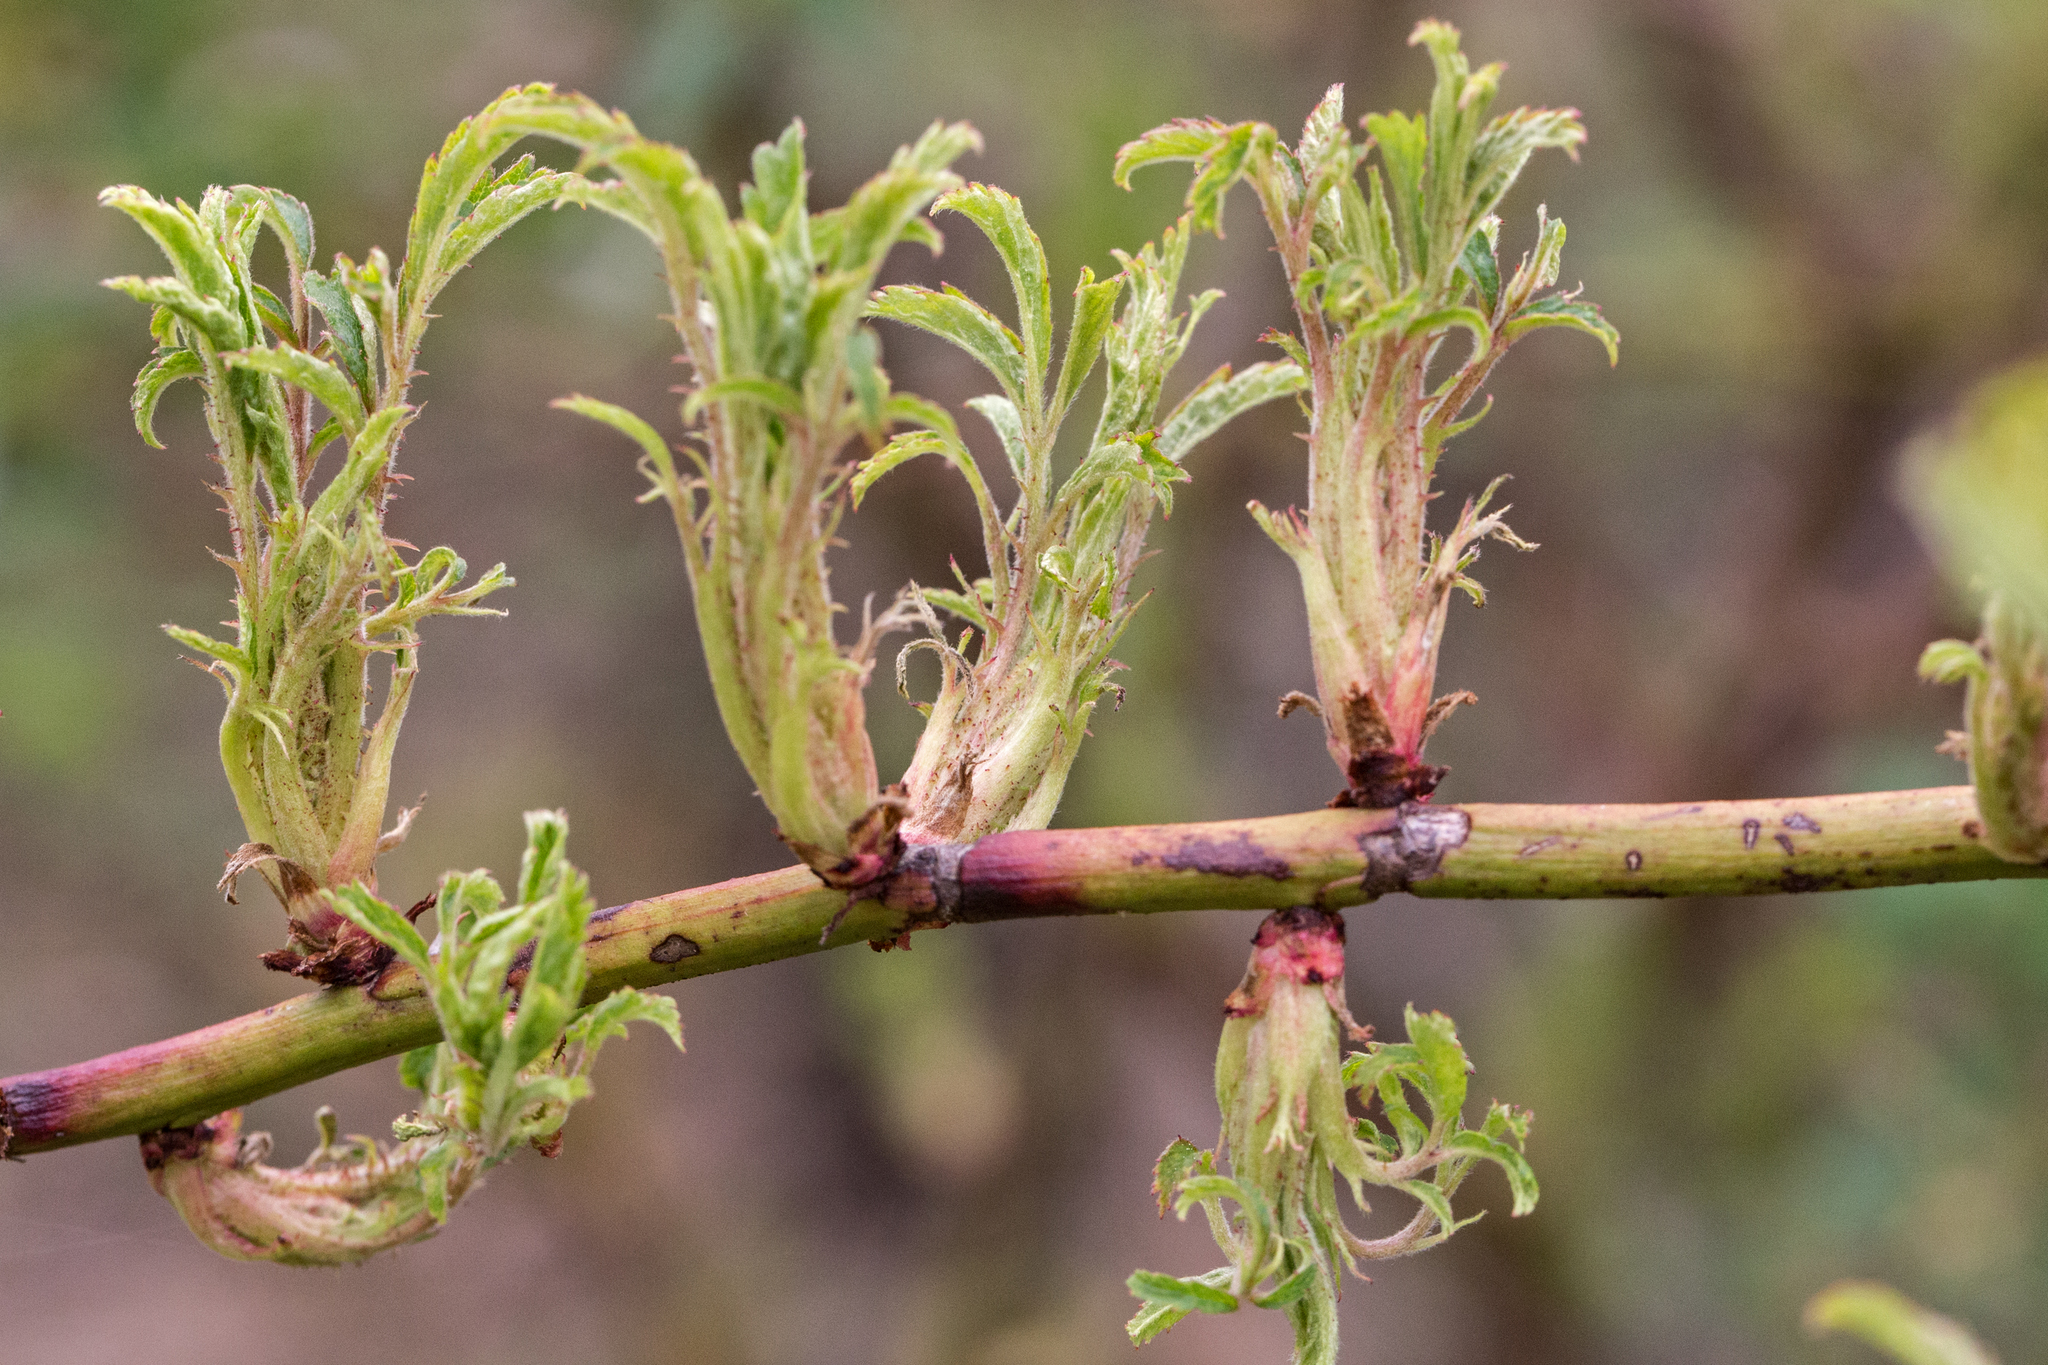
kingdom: Viruses
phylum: Negarnaviricota
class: Ellioviricetes
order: Bunyavirales
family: Fimoviridae
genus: Emaravirus
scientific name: Emaravirus rosae
